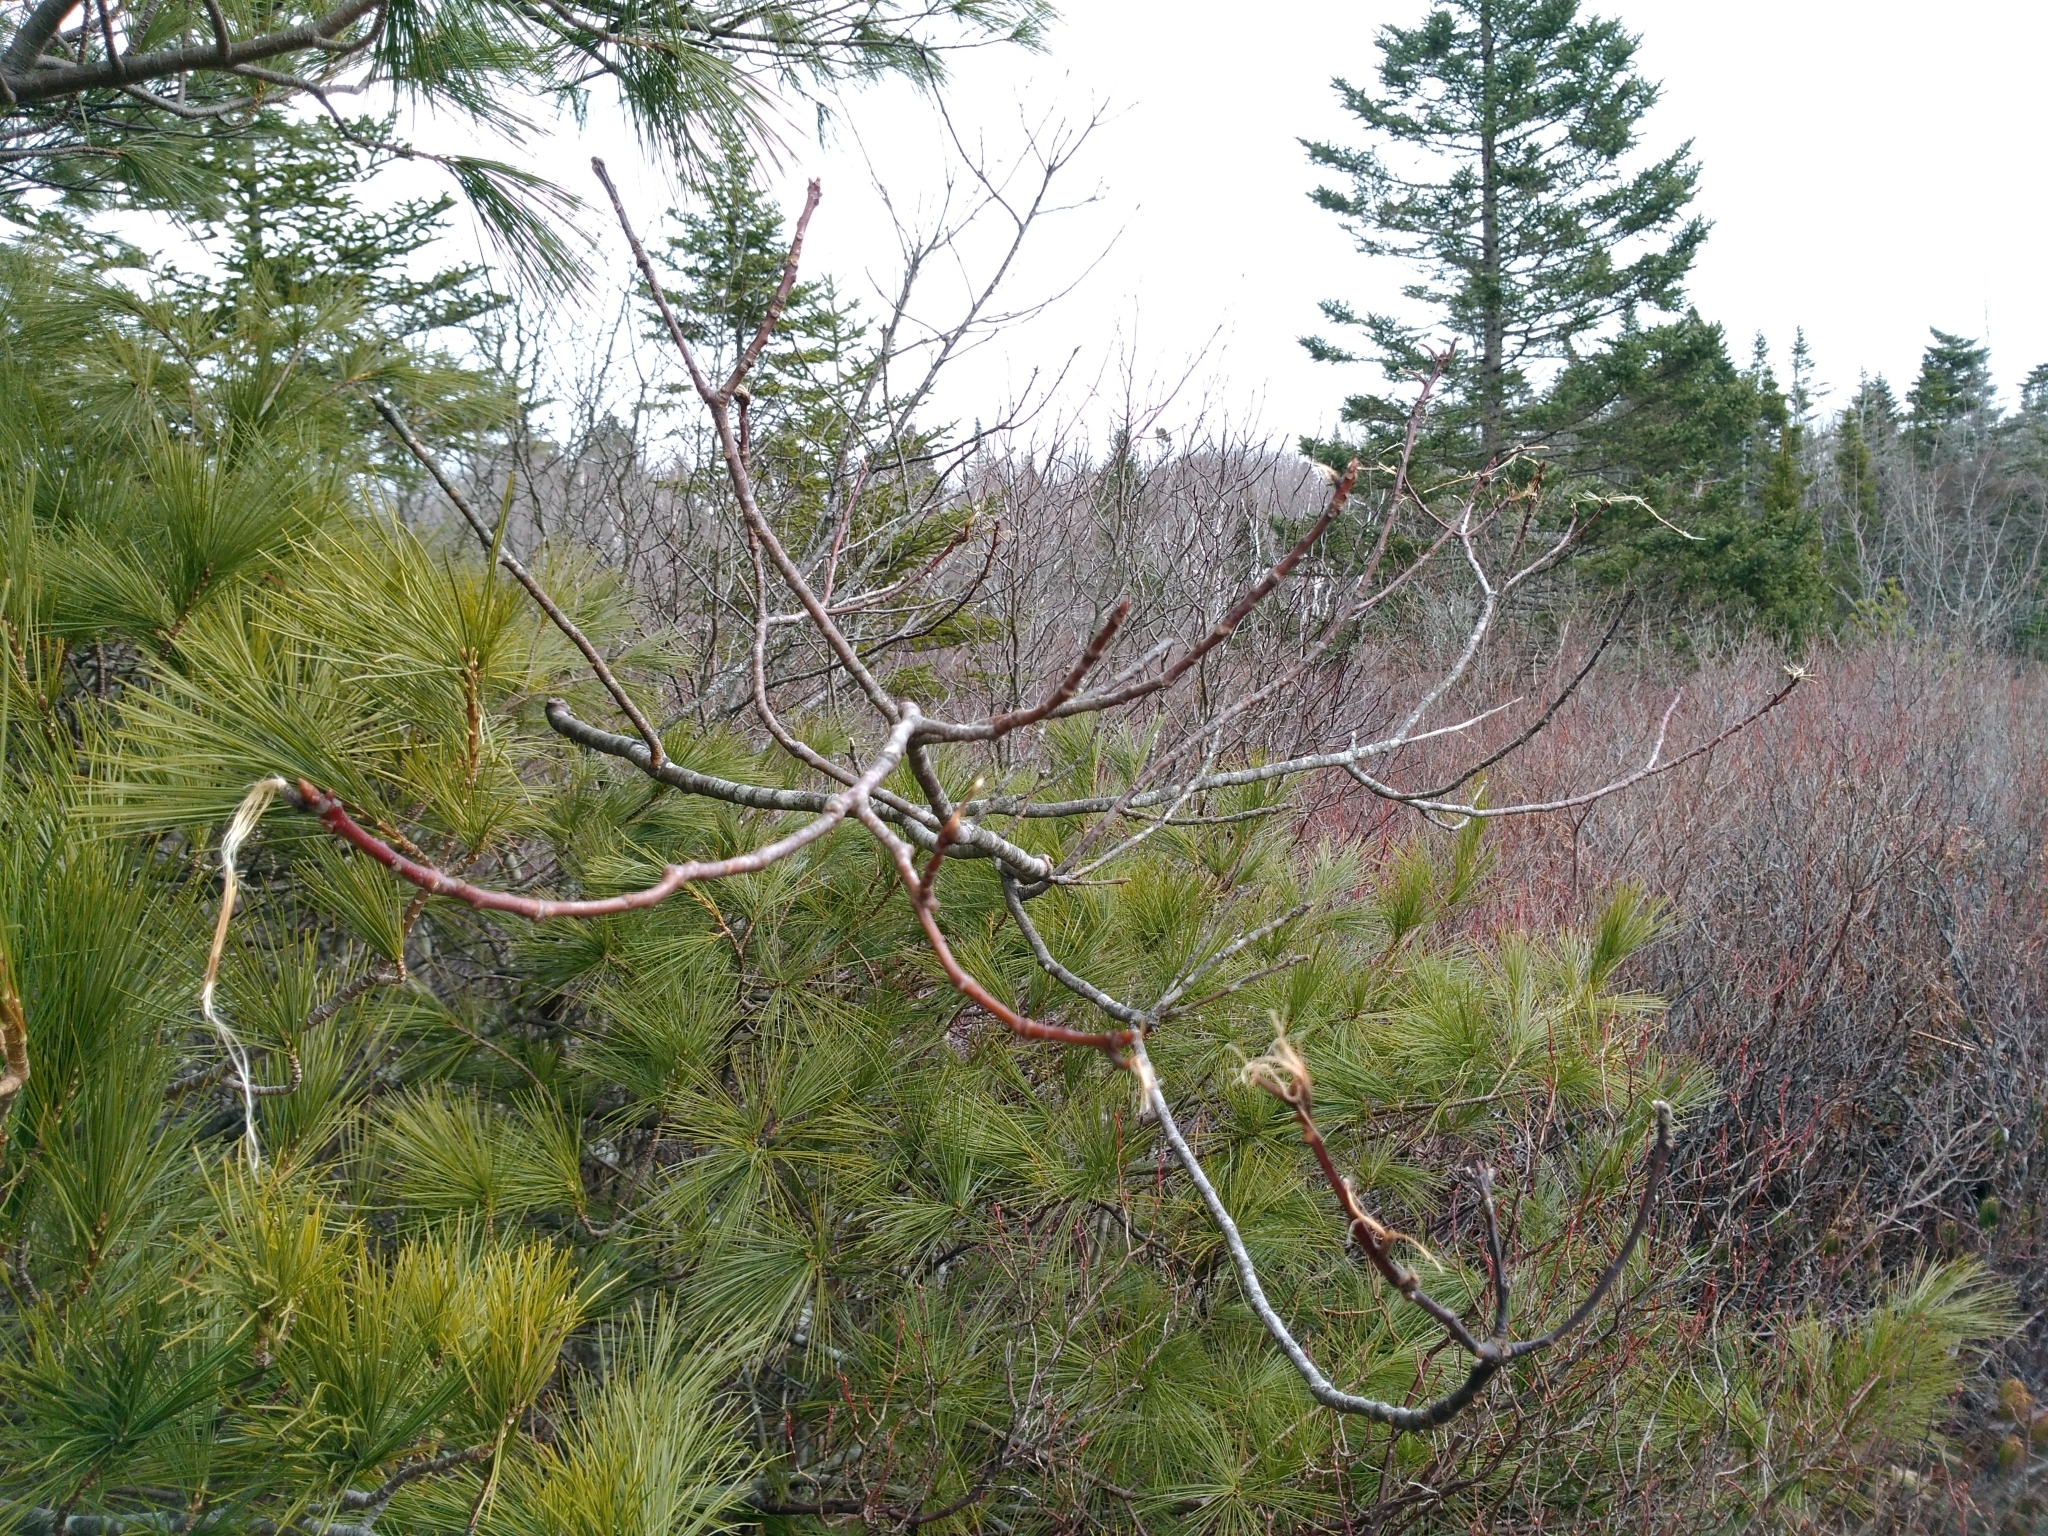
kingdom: Animalia
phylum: Chordata
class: Mammalia
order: Artiodactyla
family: Cervidae
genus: Odocoileus
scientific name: Odocoileus virginianus
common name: White-tailed deer
